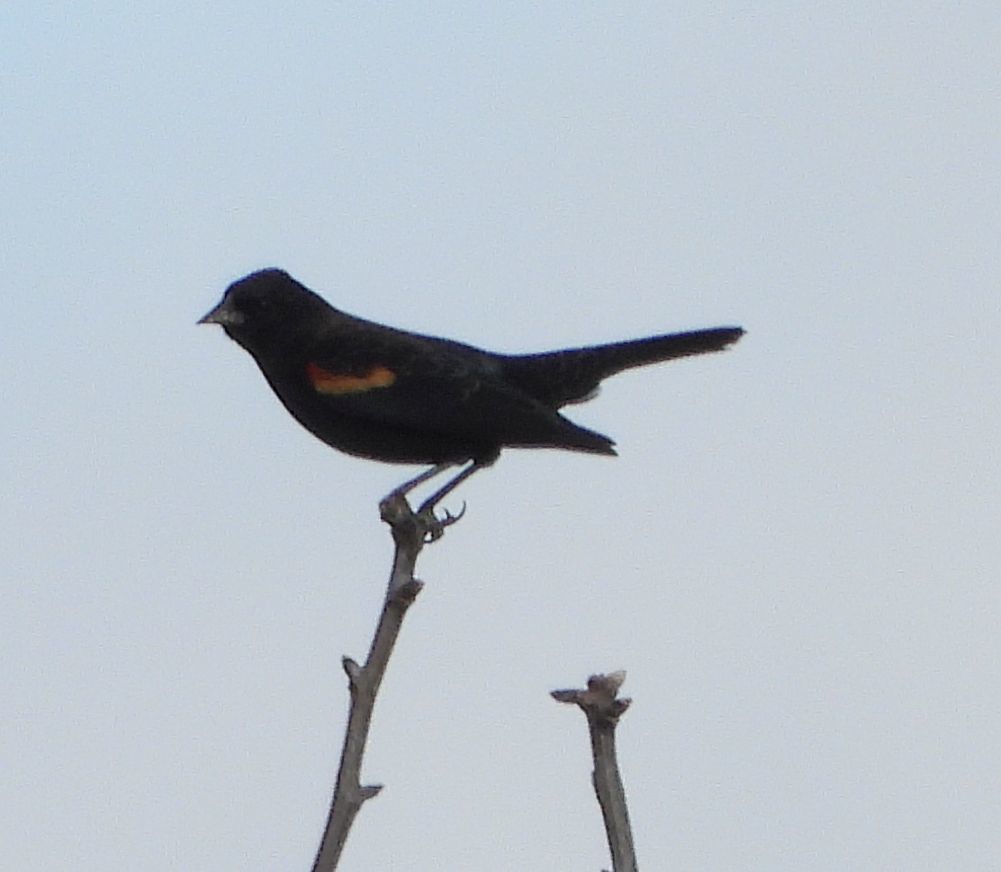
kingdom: Animalia
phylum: Chordata
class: Aves
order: Passeriformes
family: Icteridae
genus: Agelaius
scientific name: Agelaius phoeniceus
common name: Red-winged blackbird
